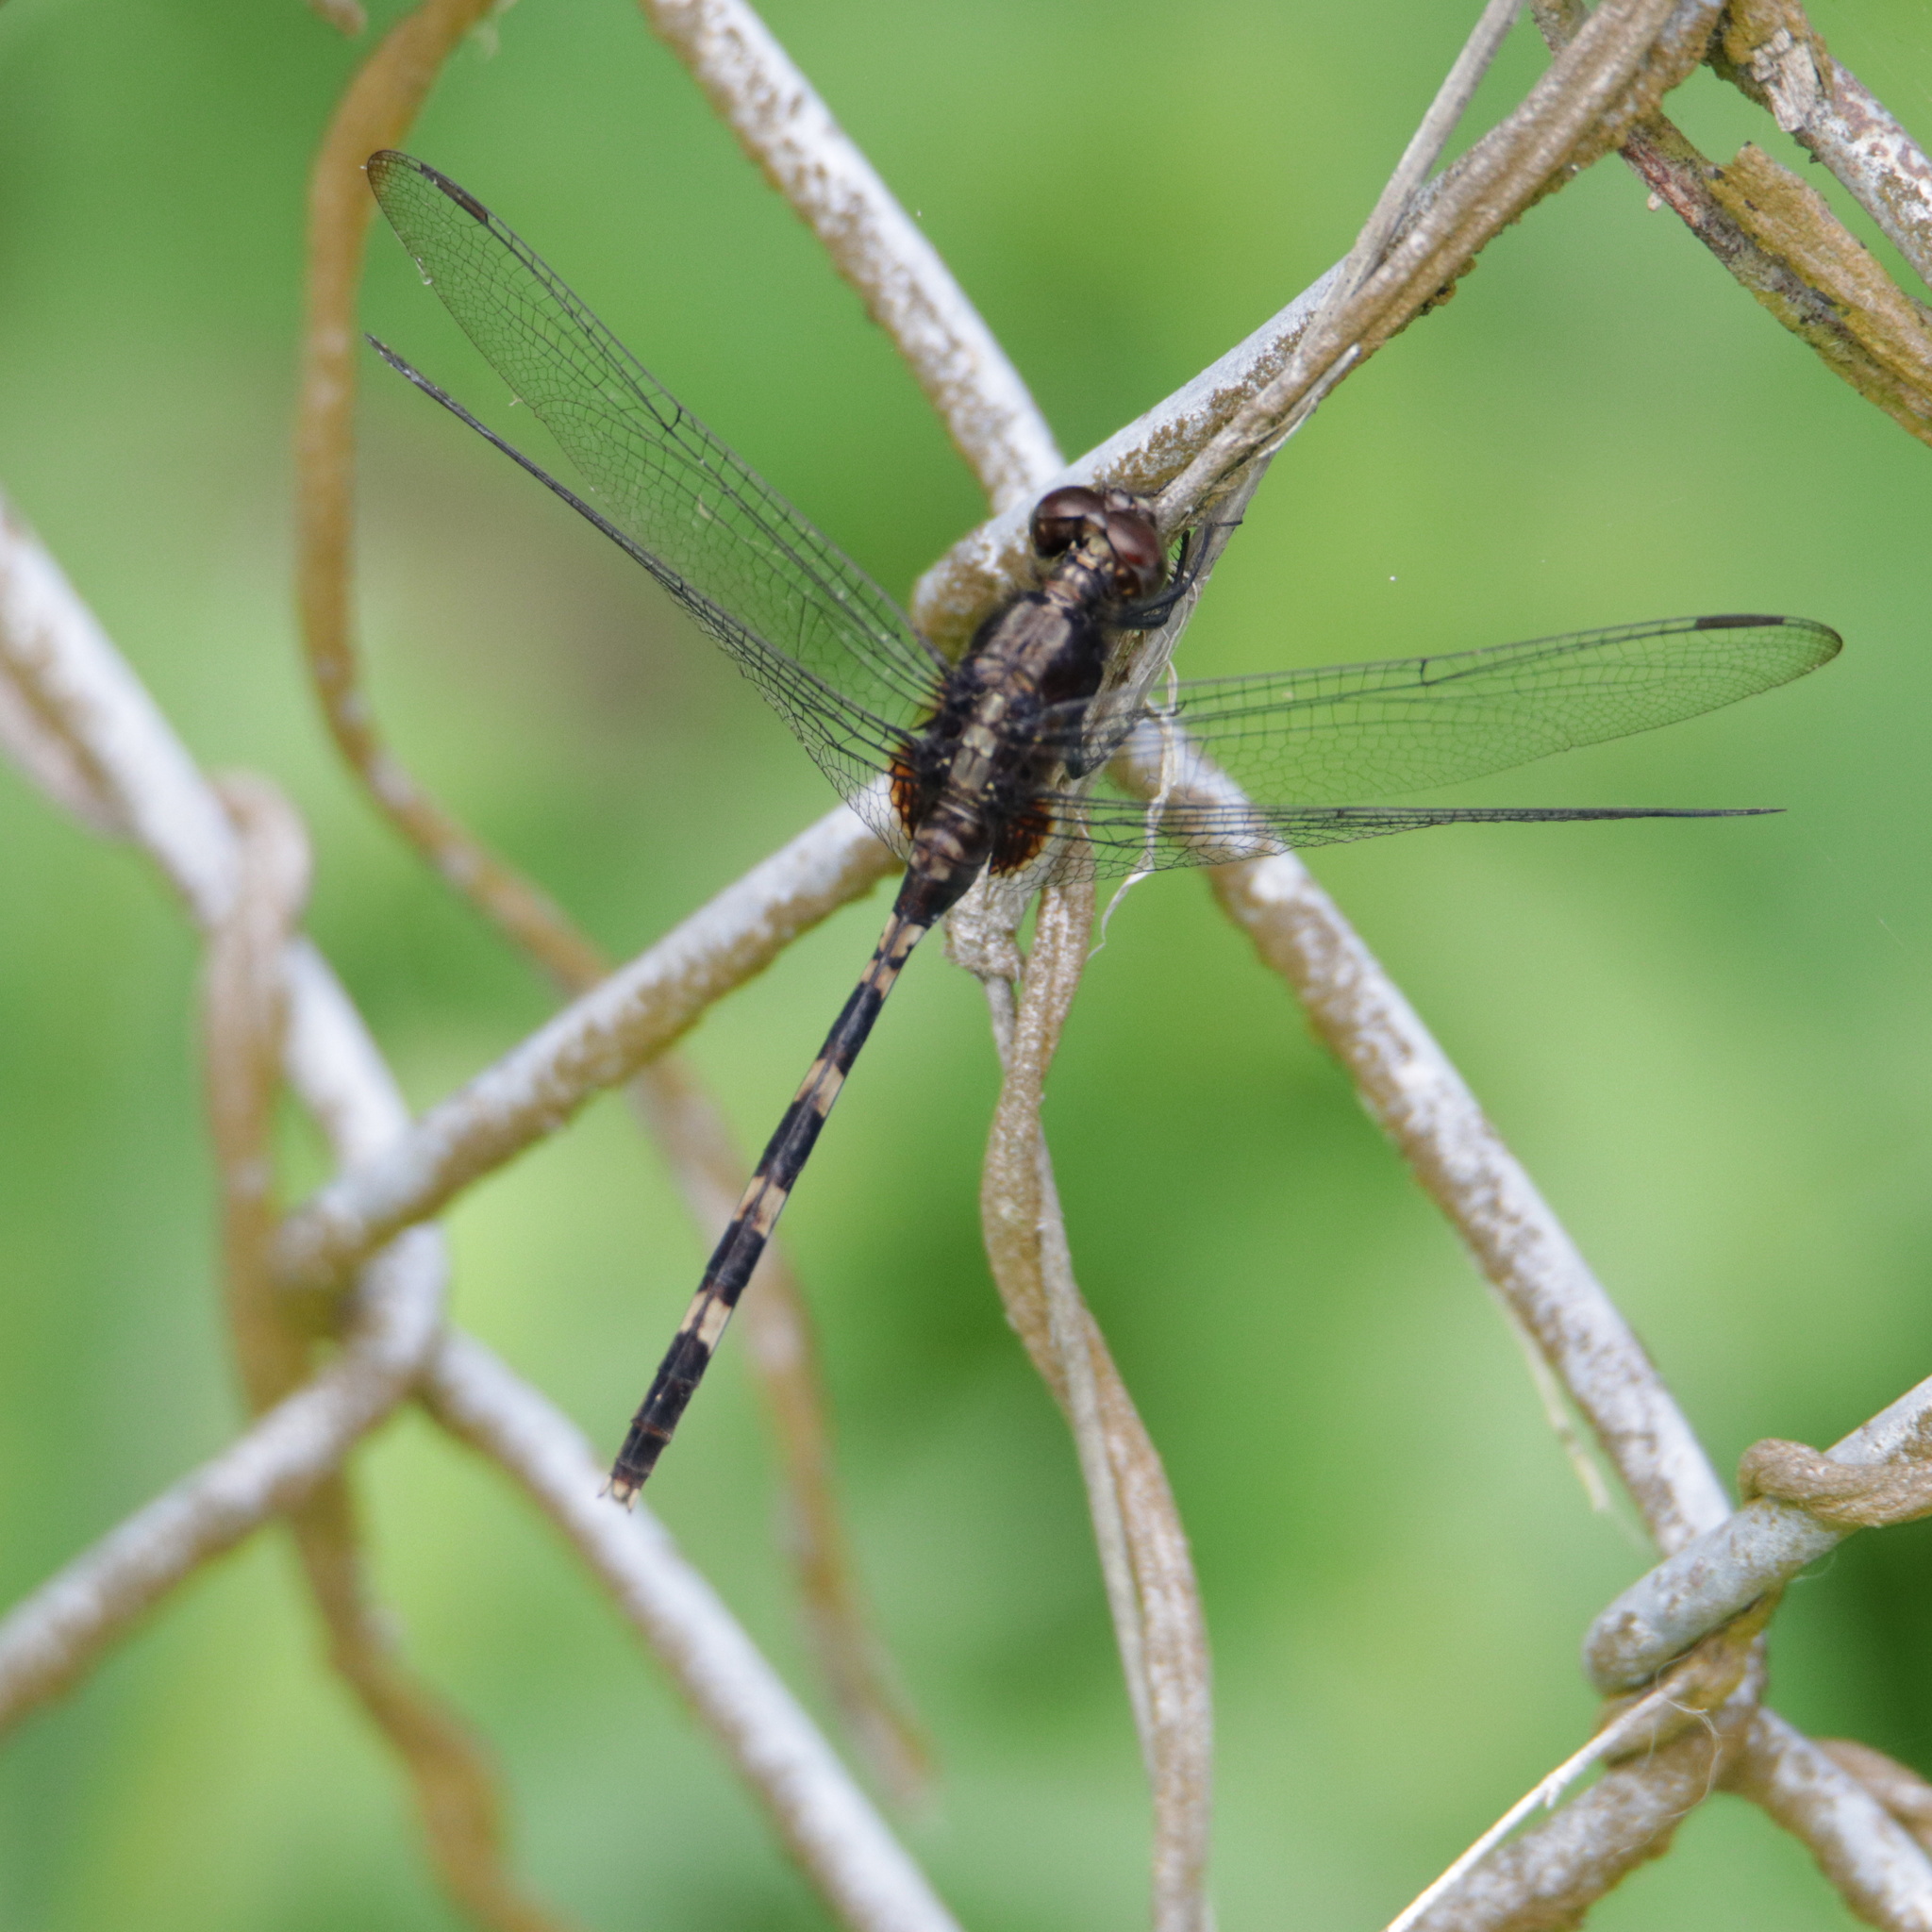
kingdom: Animalia
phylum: Arthropoda
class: Insecta
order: Odonata
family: Libellulidae
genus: Erythemis
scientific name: Erythemis plebeja
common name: Pin-tailed pondhawk
